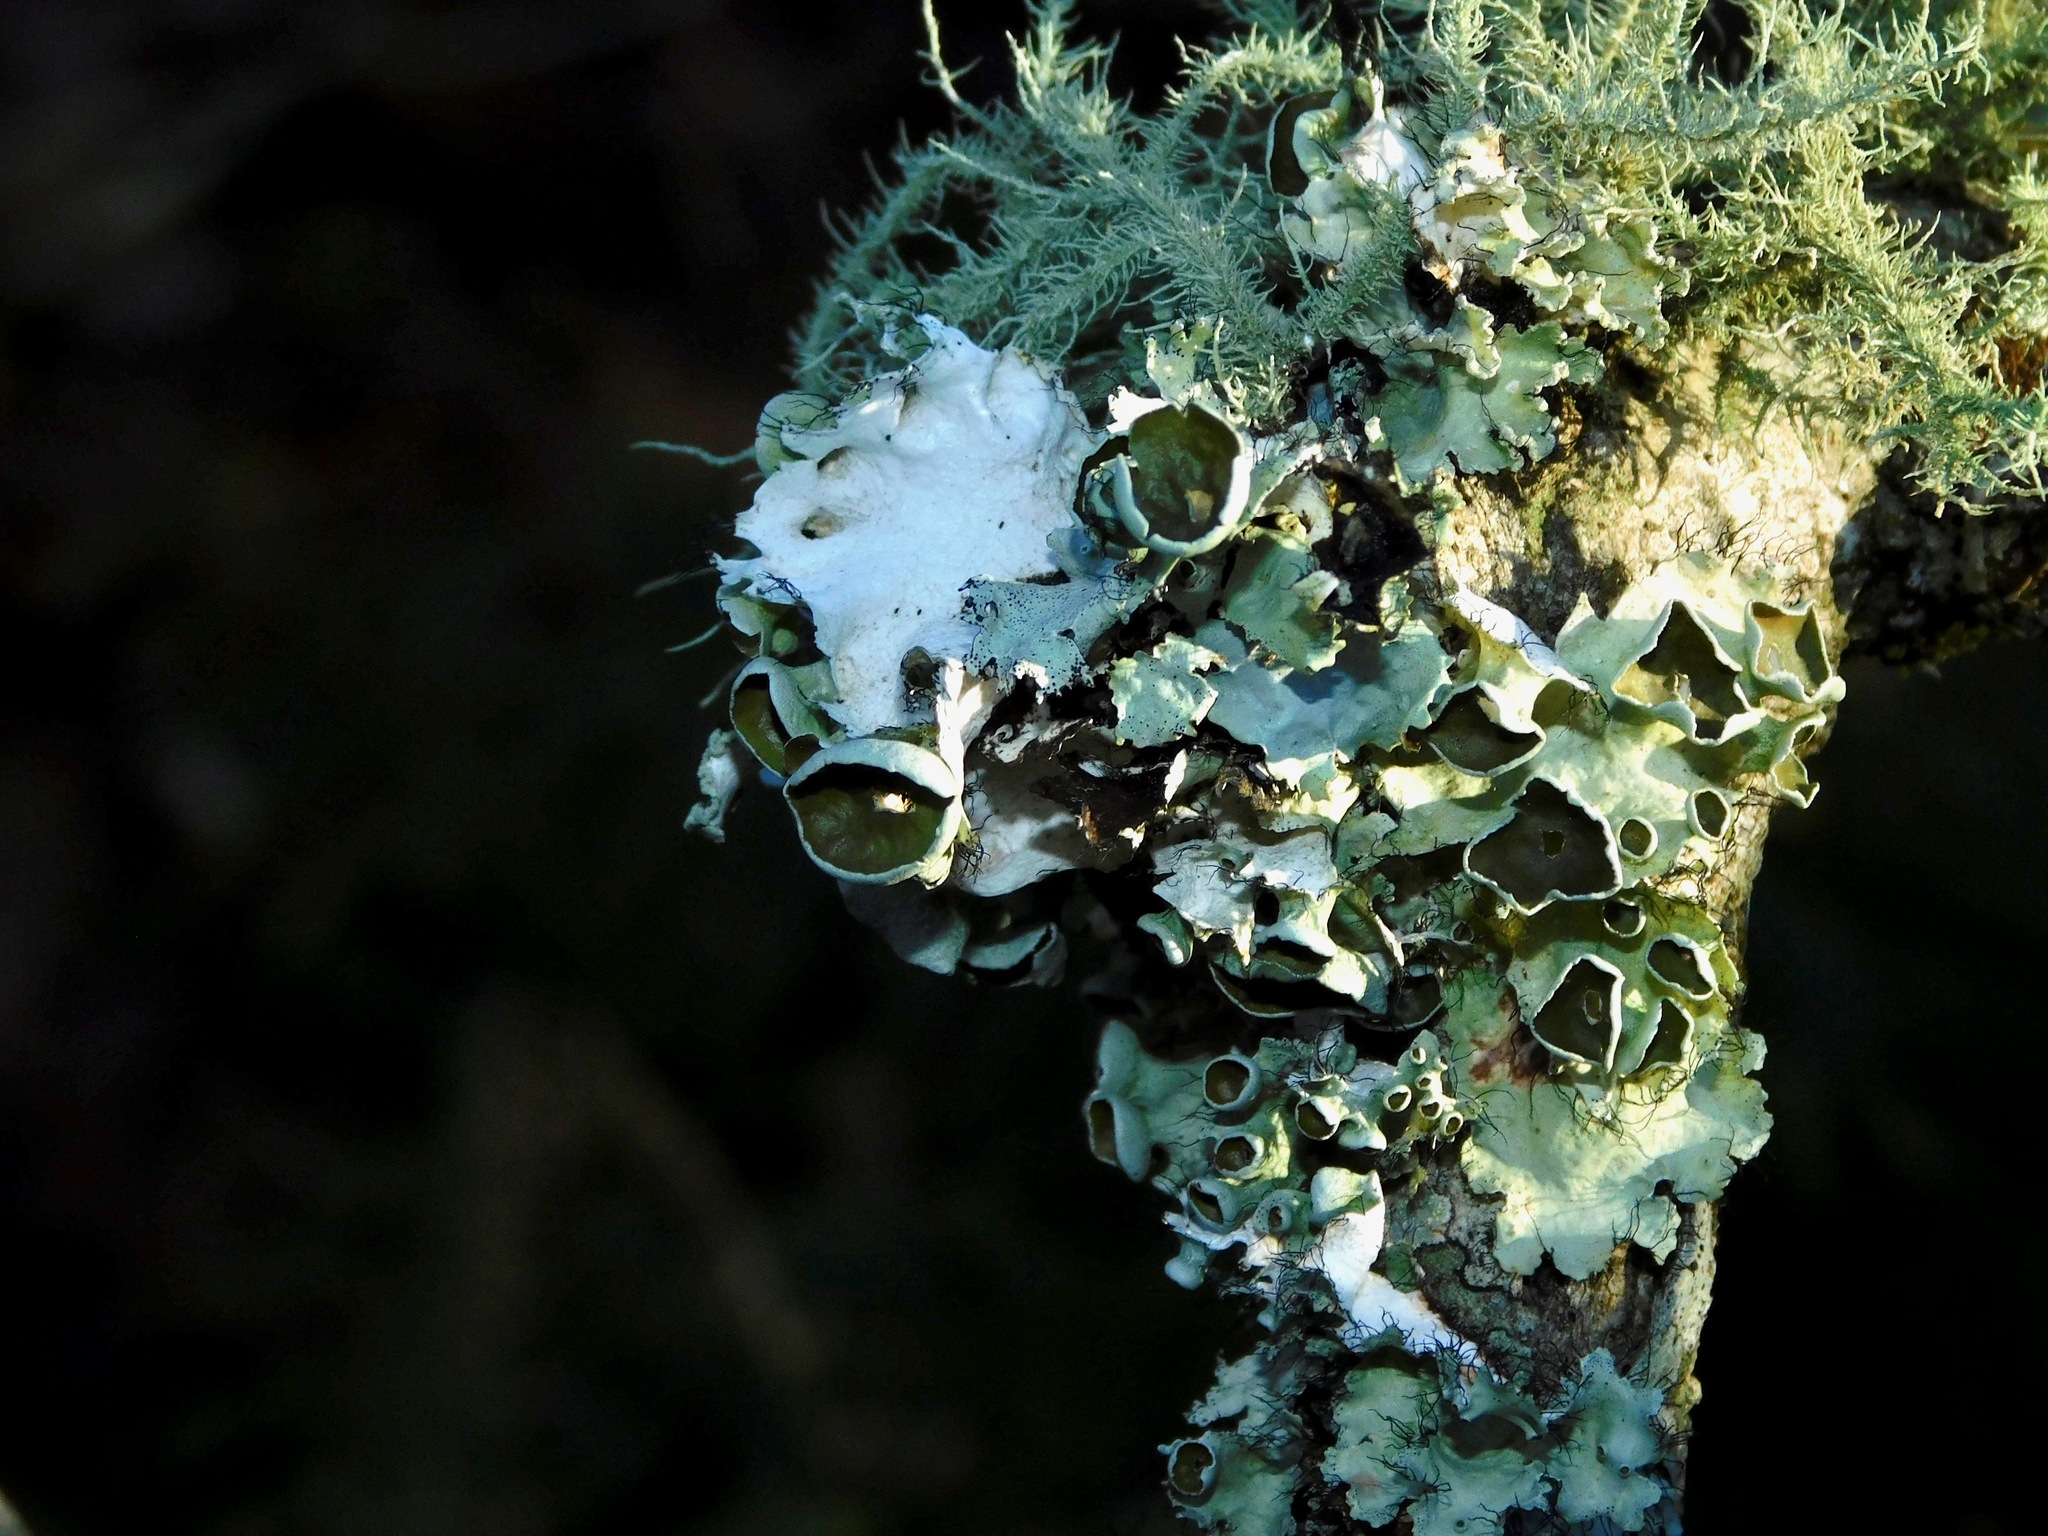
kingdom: Fungi
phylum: Ascomycota
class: Lecanoromycetes
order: Lecanorales
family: Parmeliaceae
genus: Parmotrema
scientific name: Parmotrema subrigidum
